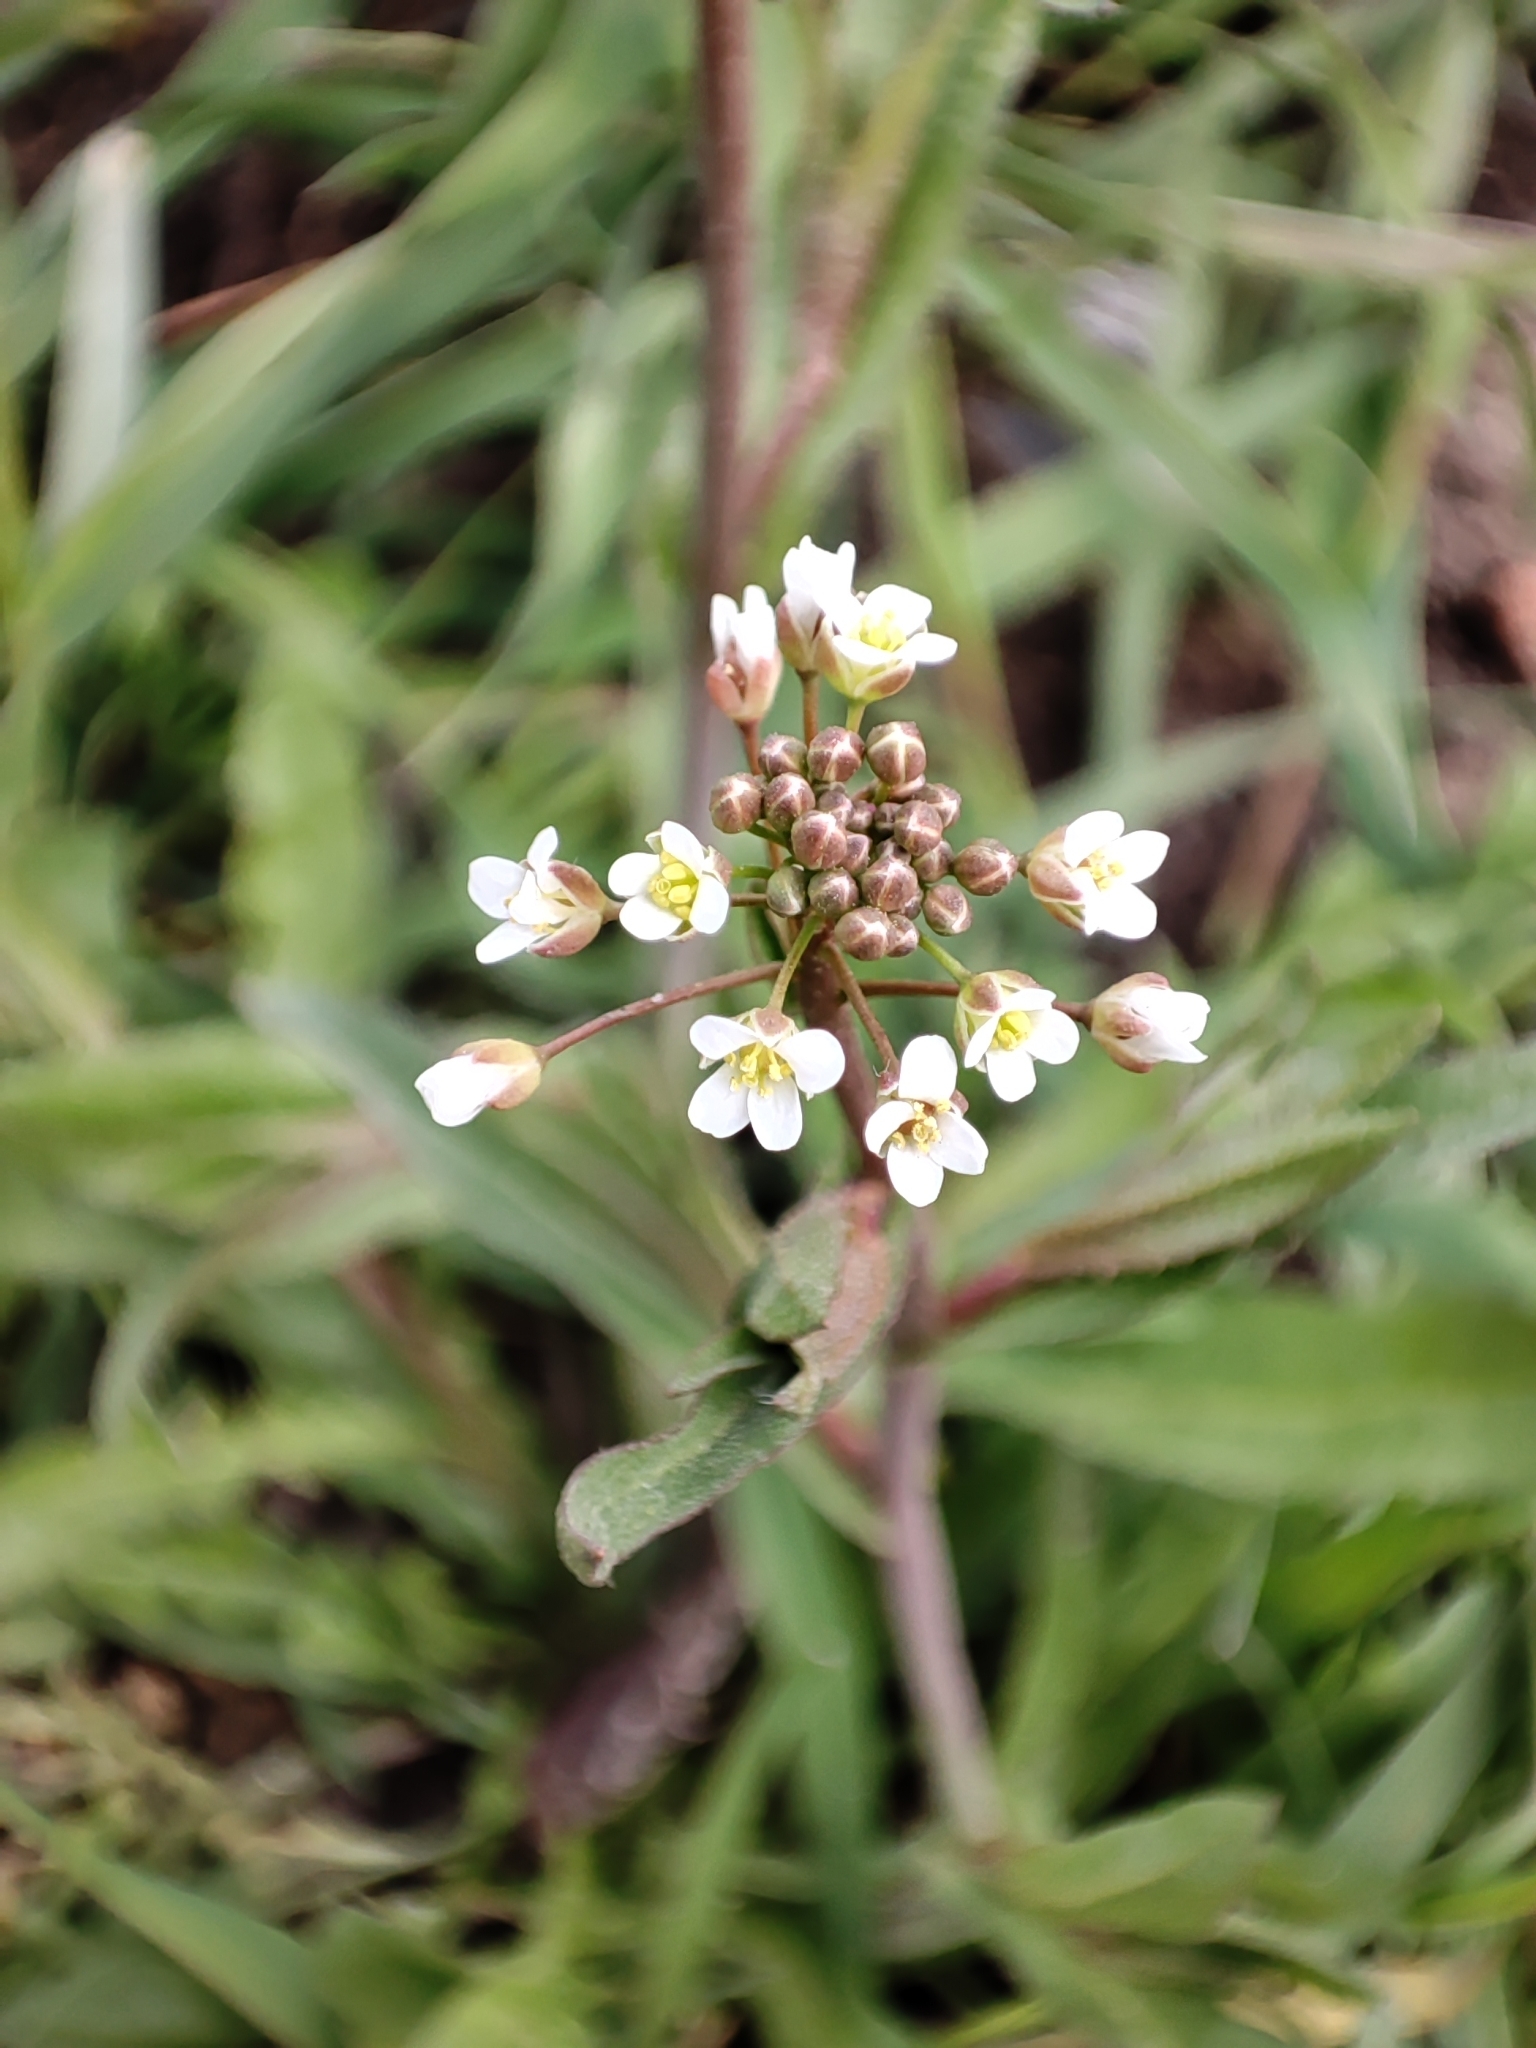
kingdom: Plantae
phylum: Tracheophyta
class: Magnoliopsida
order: Brassicales
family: Brassicaceae
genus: Capsella
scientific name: Capsella bursa-pastoris
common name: Shepherd's purse
